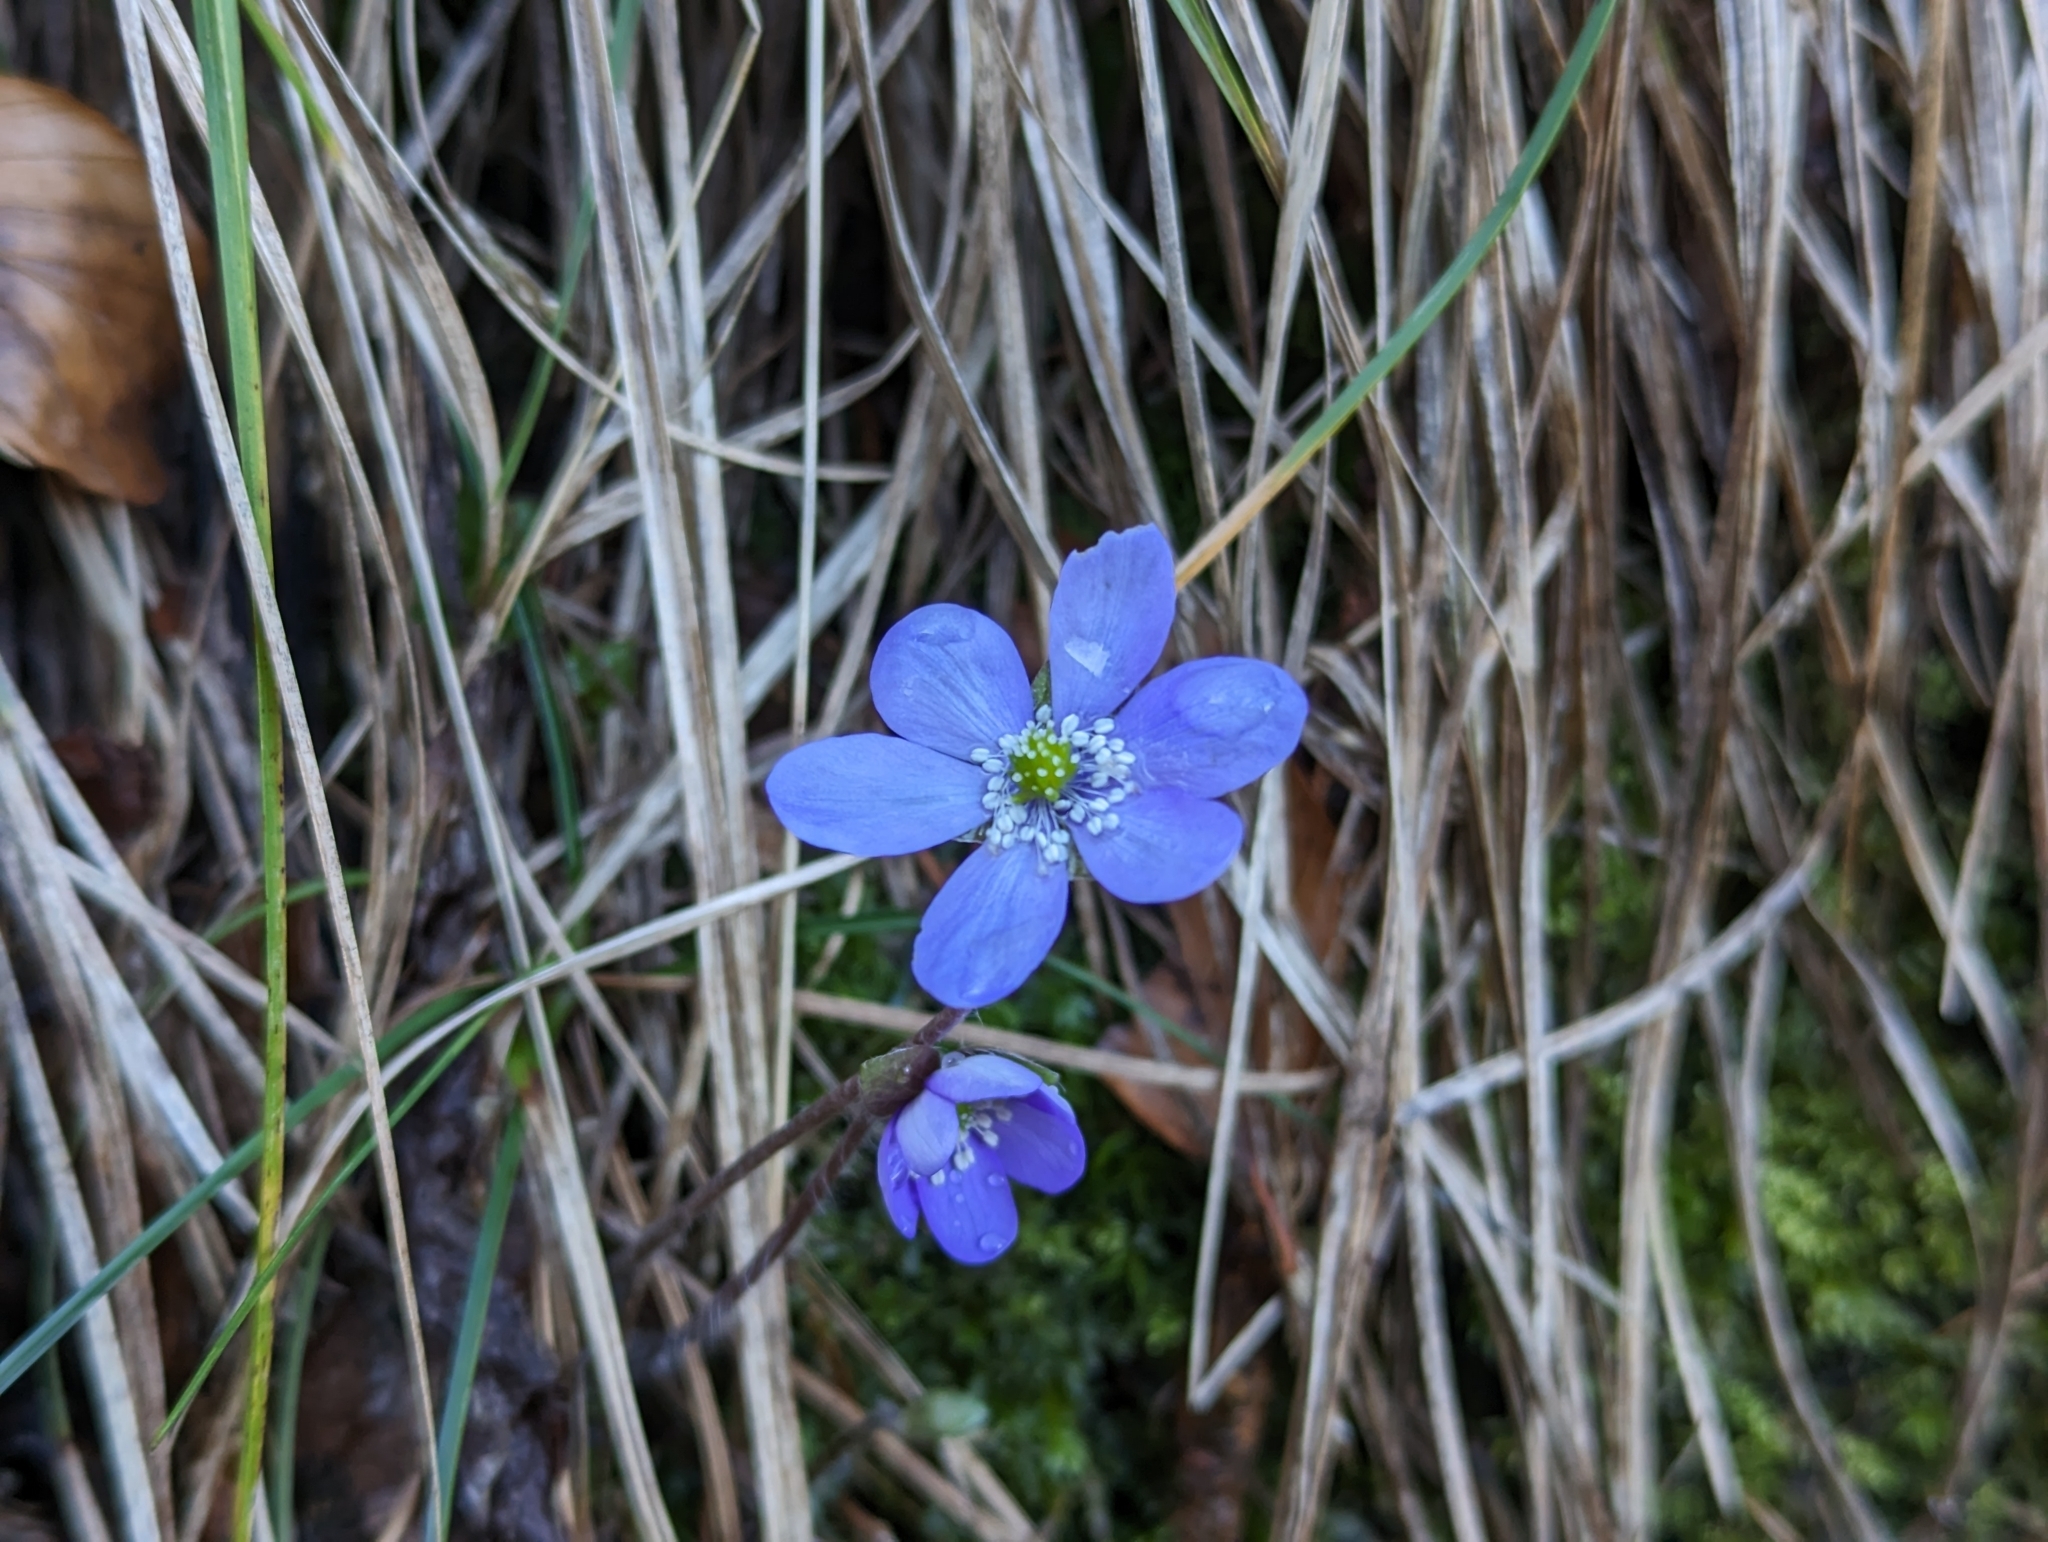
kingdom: Plantae
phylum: Tracheophyta
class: Magnoliopsida
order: Ranunculales
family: Ranunculaceae
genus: Hepatica
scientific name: Hepatica nobilis
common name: Liverleaf
